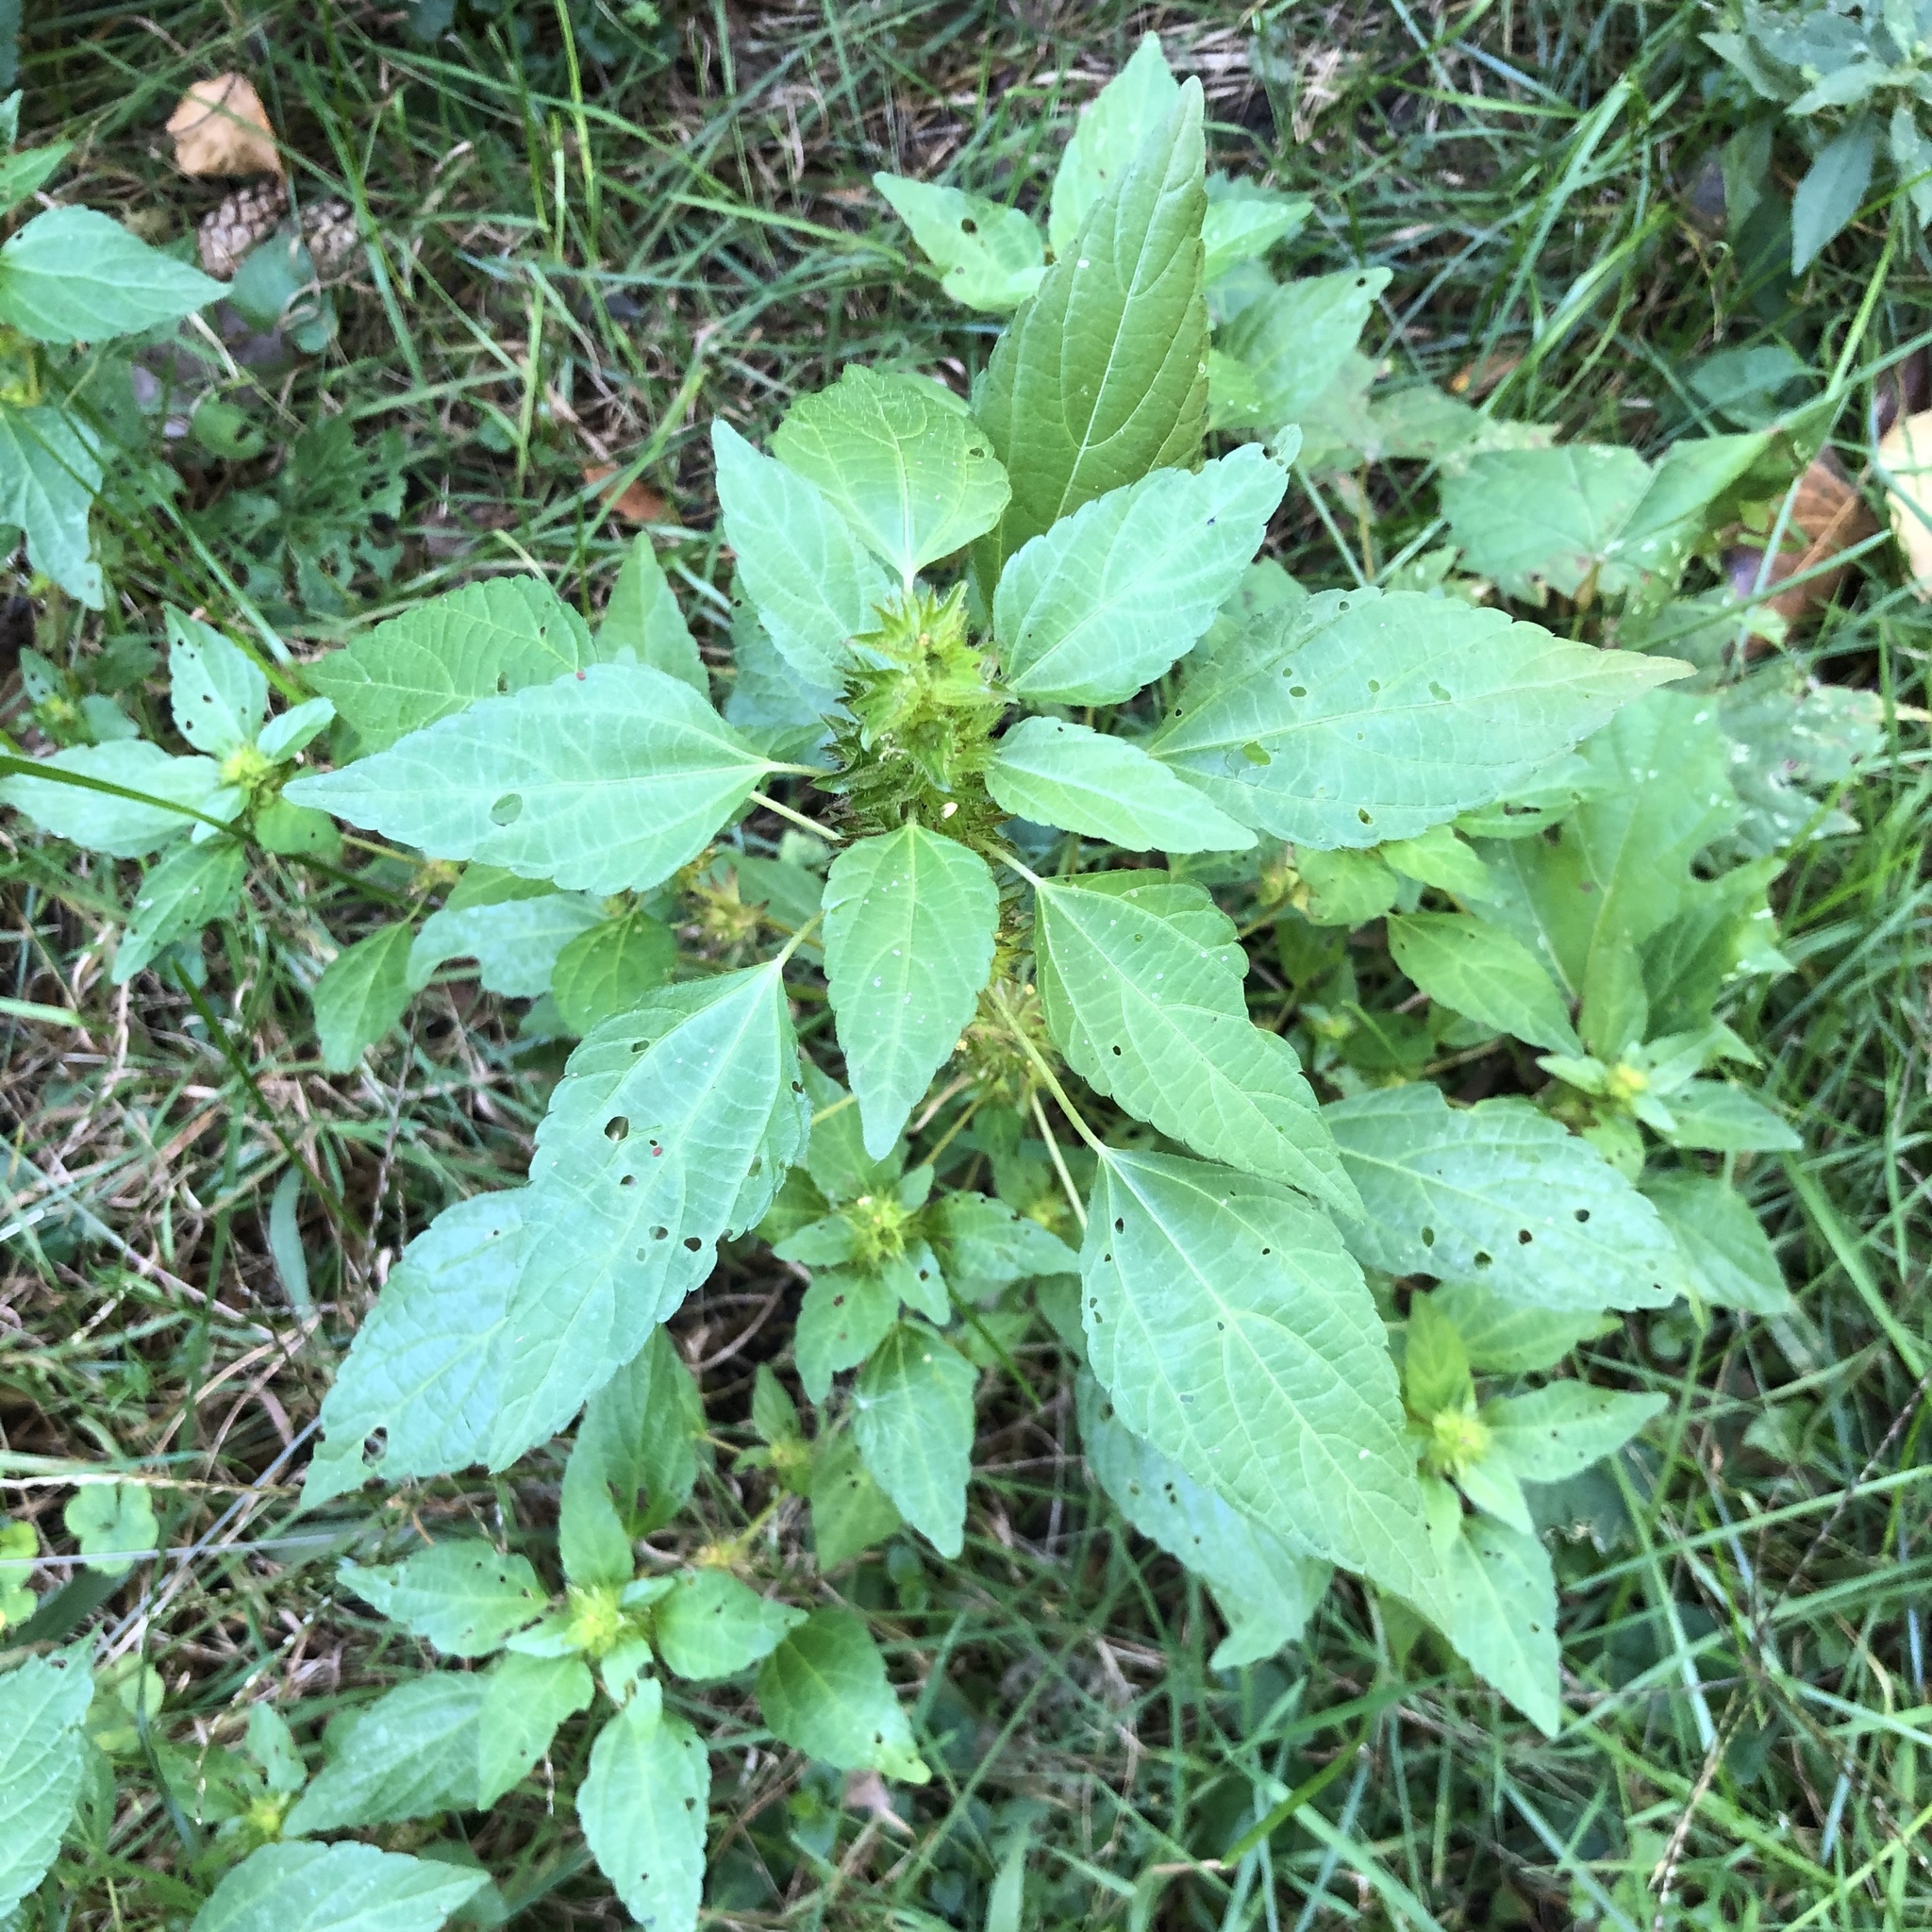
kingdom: Plantae
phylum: Tracheophyta
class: Magnoliopsida
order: Malpighiales
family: Euphorbiaceae
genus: Acalypha
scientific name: Acalypha rhomboidea
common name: Rhombic copperleaf
